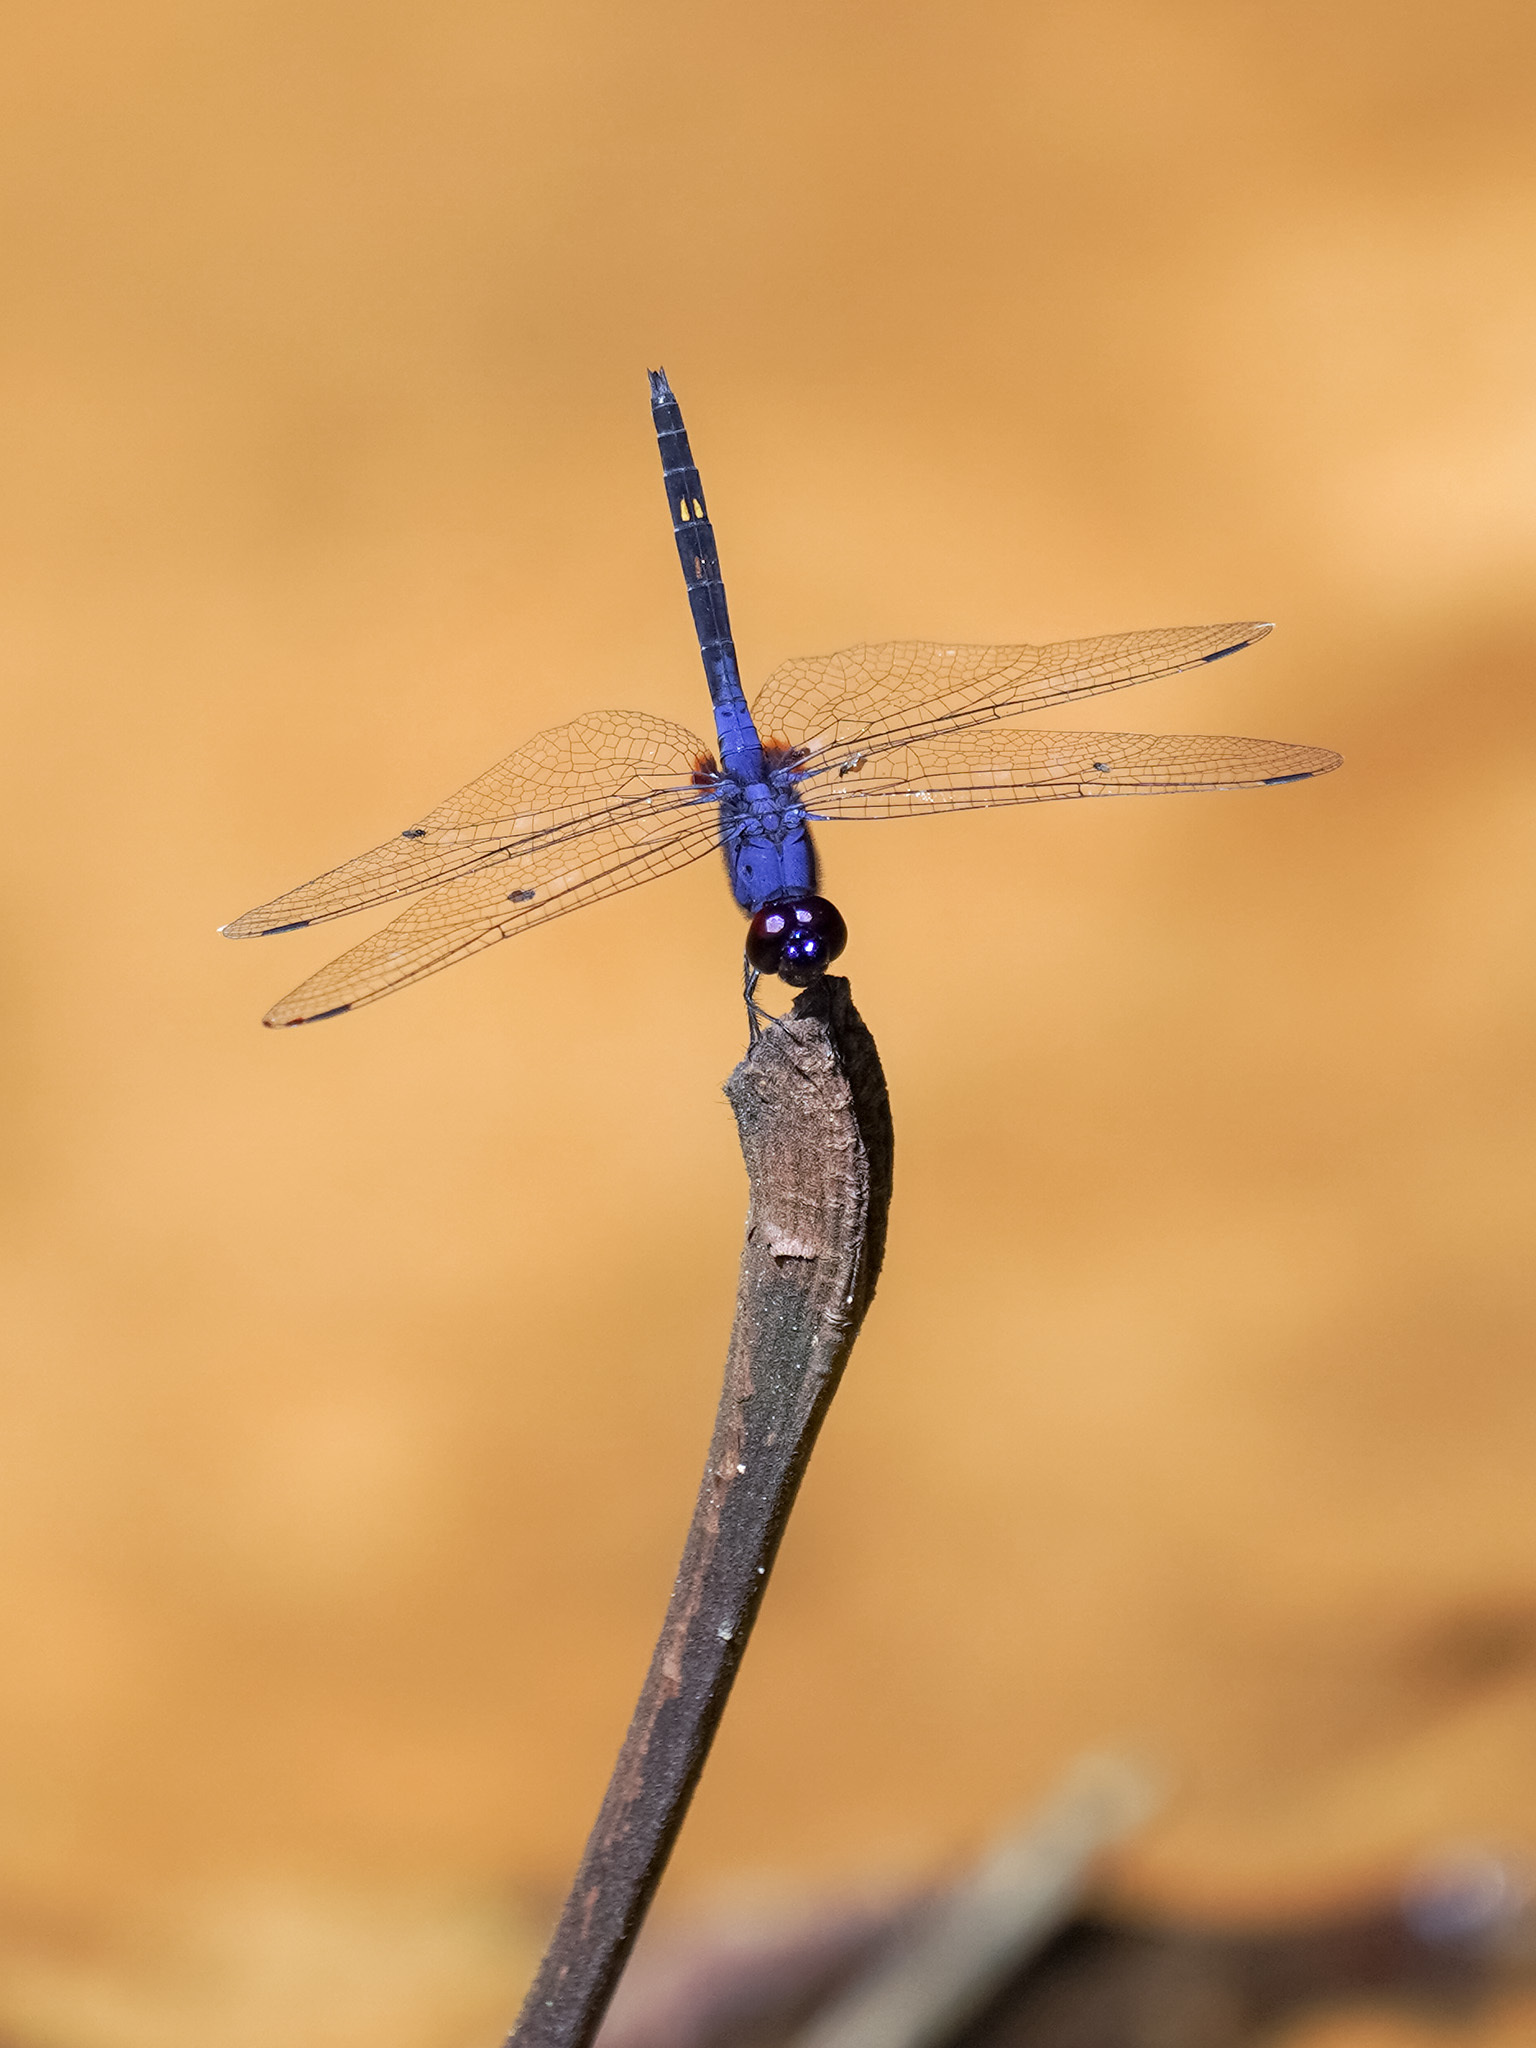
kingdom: Animalia
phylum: Arthropoda
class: Insecta
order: Odonata
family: Libellulidae
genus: Trithemis
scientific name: Trithemis festiva
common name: Indigo dropwing
